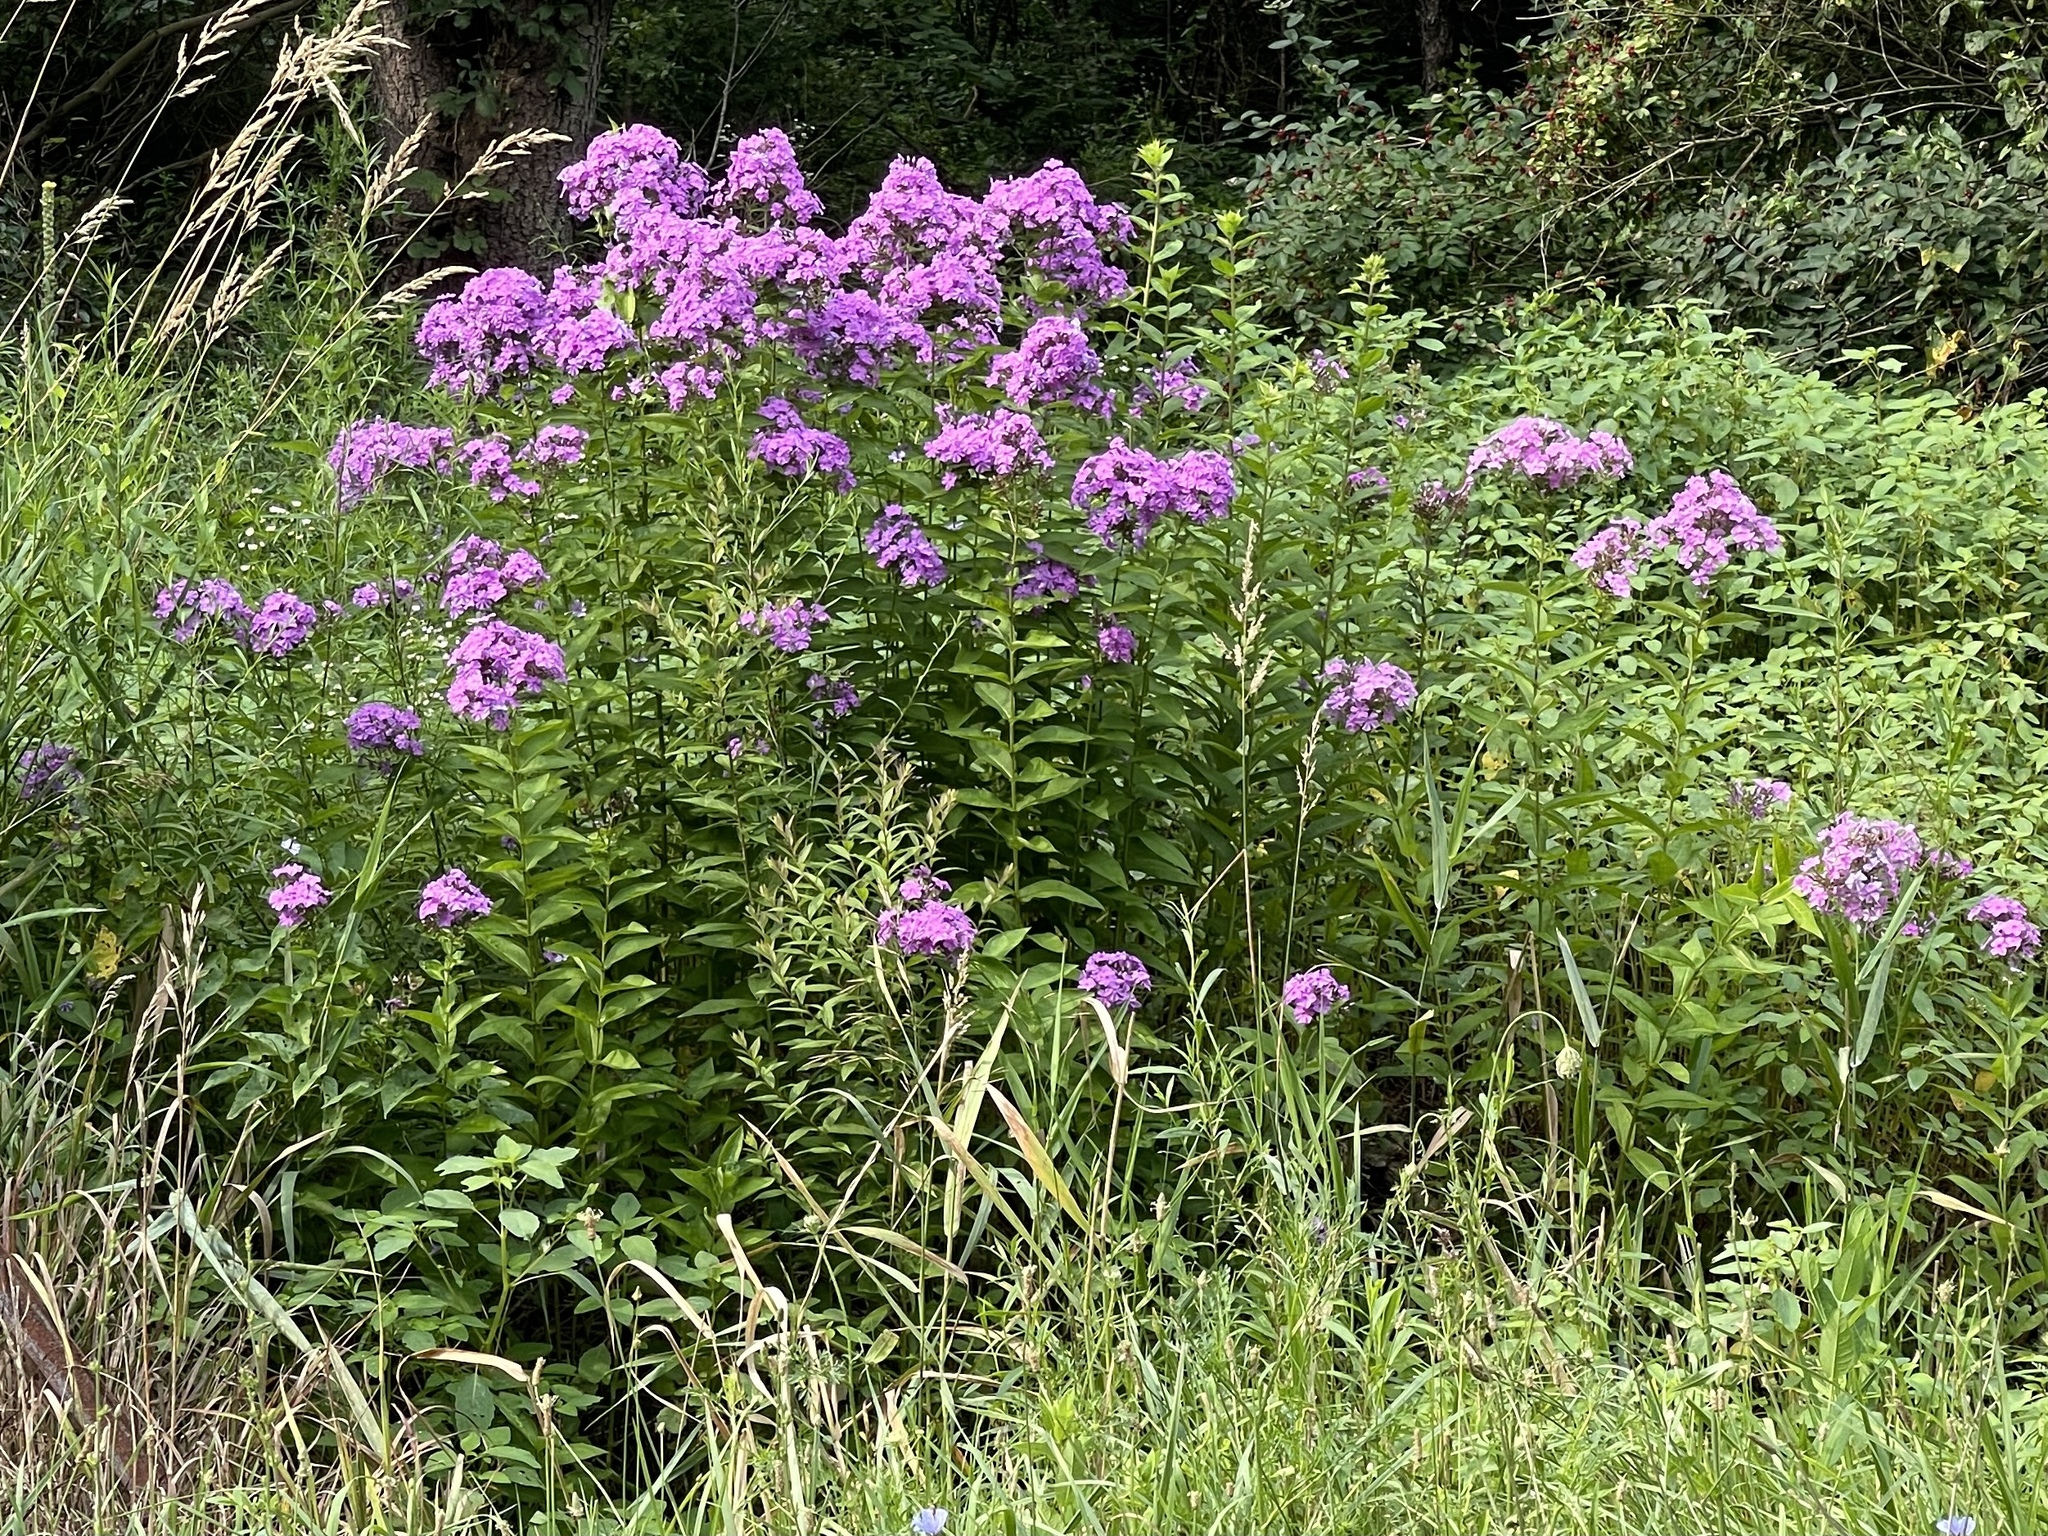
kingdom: Plantae
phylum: Tracheophyta
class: Magnoliopsida
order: Ericales
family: Polemoniaceae
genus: Phlox
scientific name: Phlox paniculata
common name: Fall phlox
